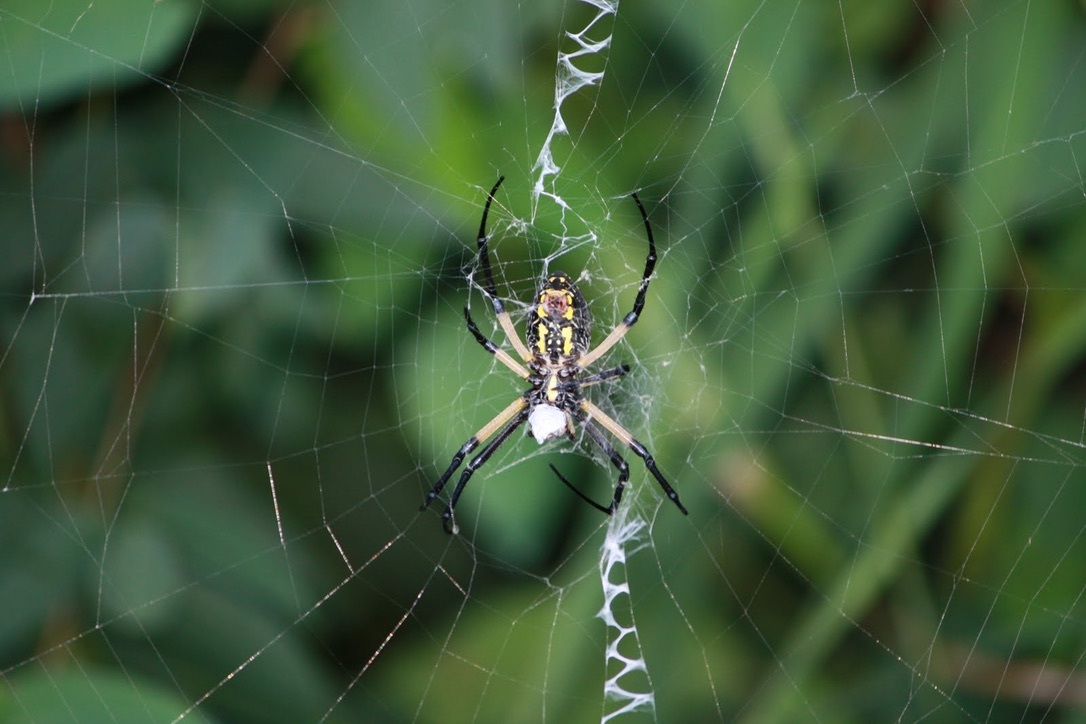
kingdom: Animalia
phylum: Arthropoda
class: Arachnida
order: Araneae
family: Araneidae
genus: Argiope
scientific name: Argiope aurantia
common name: Orb weavers
